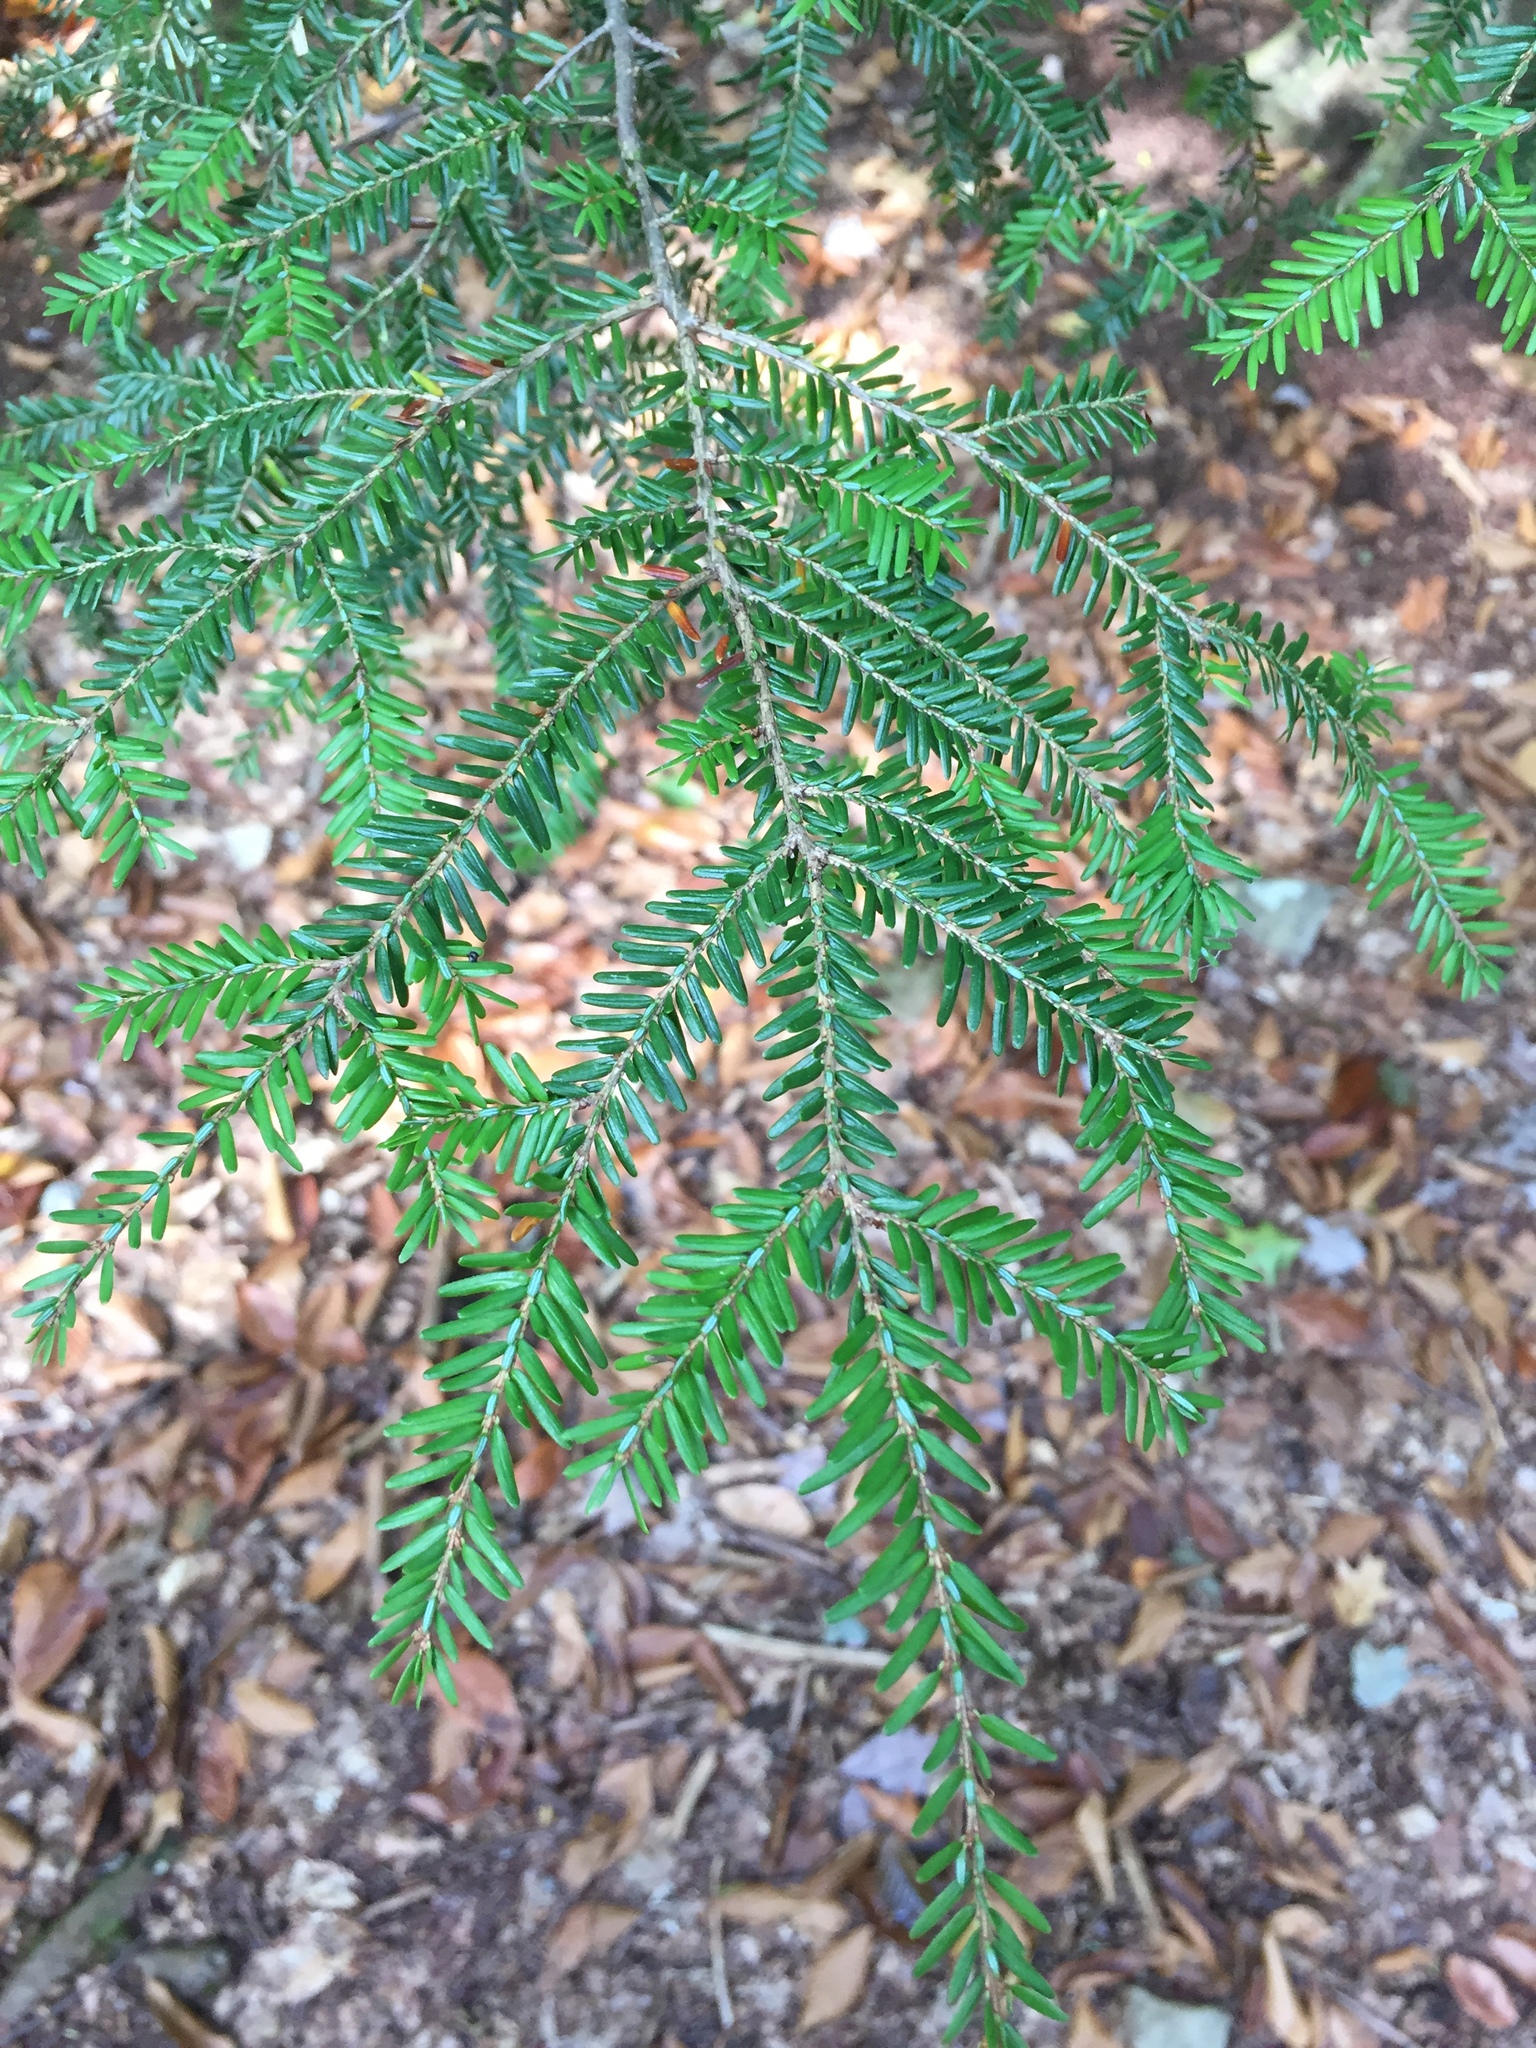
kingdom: Plantae
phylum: Tracheophyta
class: Pinopsida
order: Pinales
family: Pinaceae
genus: Tsuga
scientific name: Tsuga canadensis
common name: Eastern hemlock
